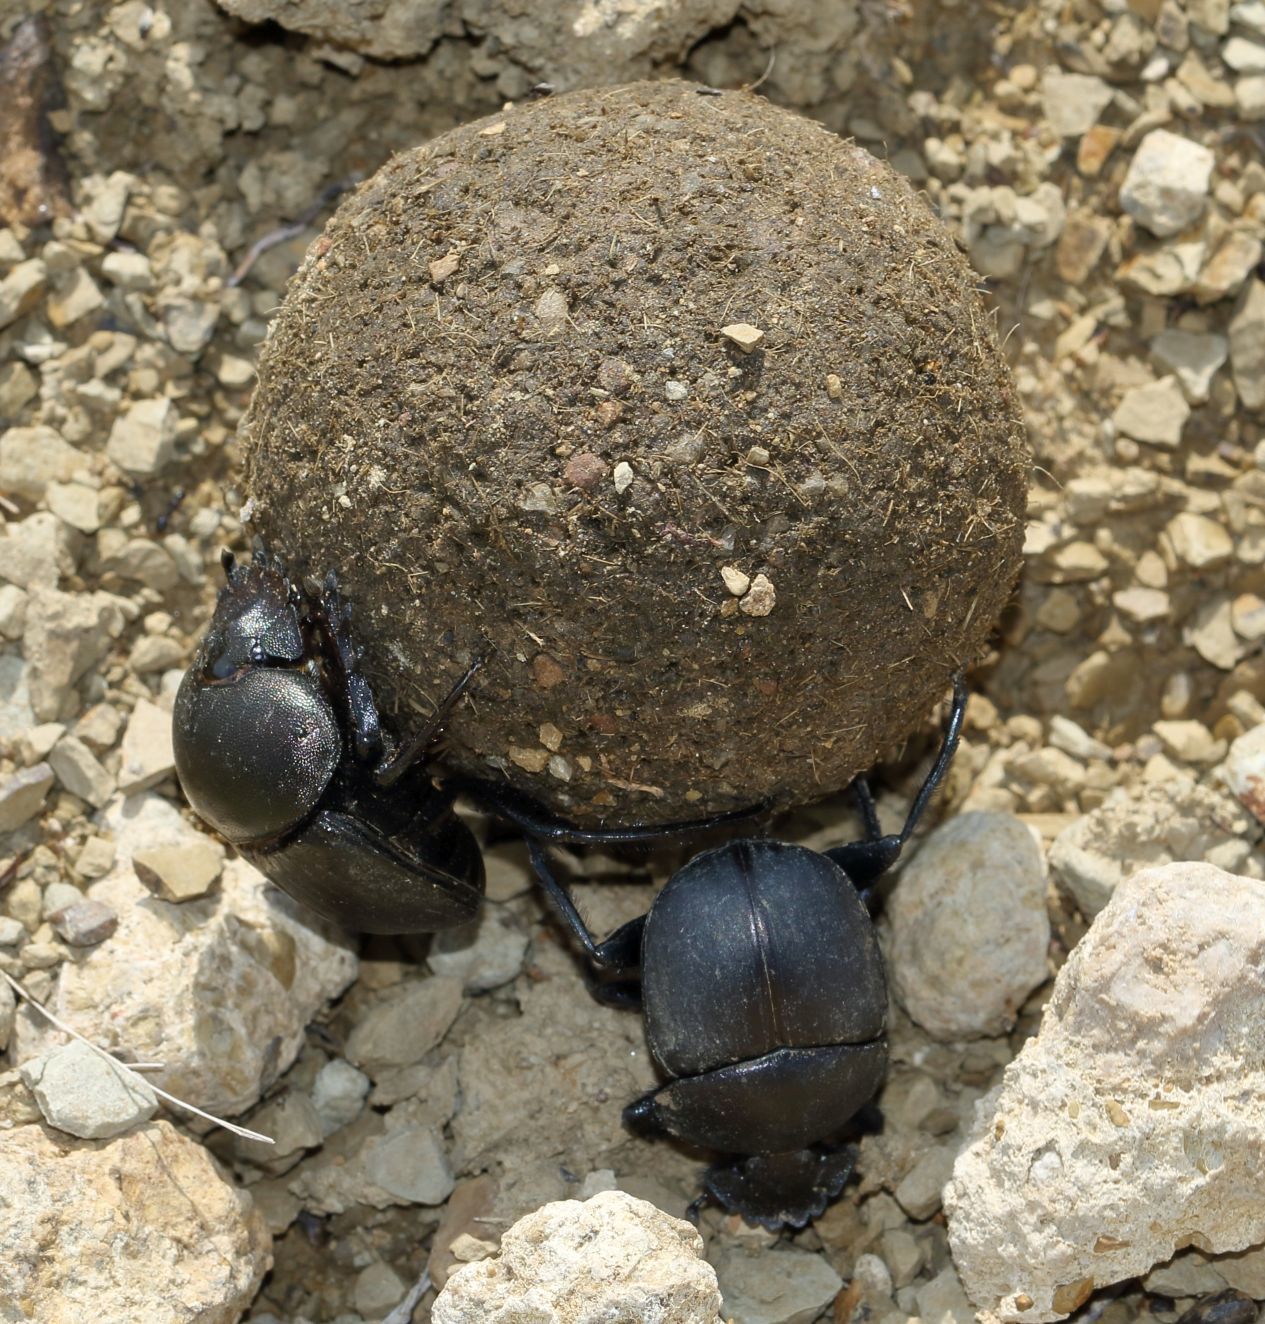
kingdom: Animalia
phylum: Arthropoda
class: Insecta
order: Coleoptera
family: Scarabaeidae
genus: Kheper
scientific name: Kheper nigroaeneus
